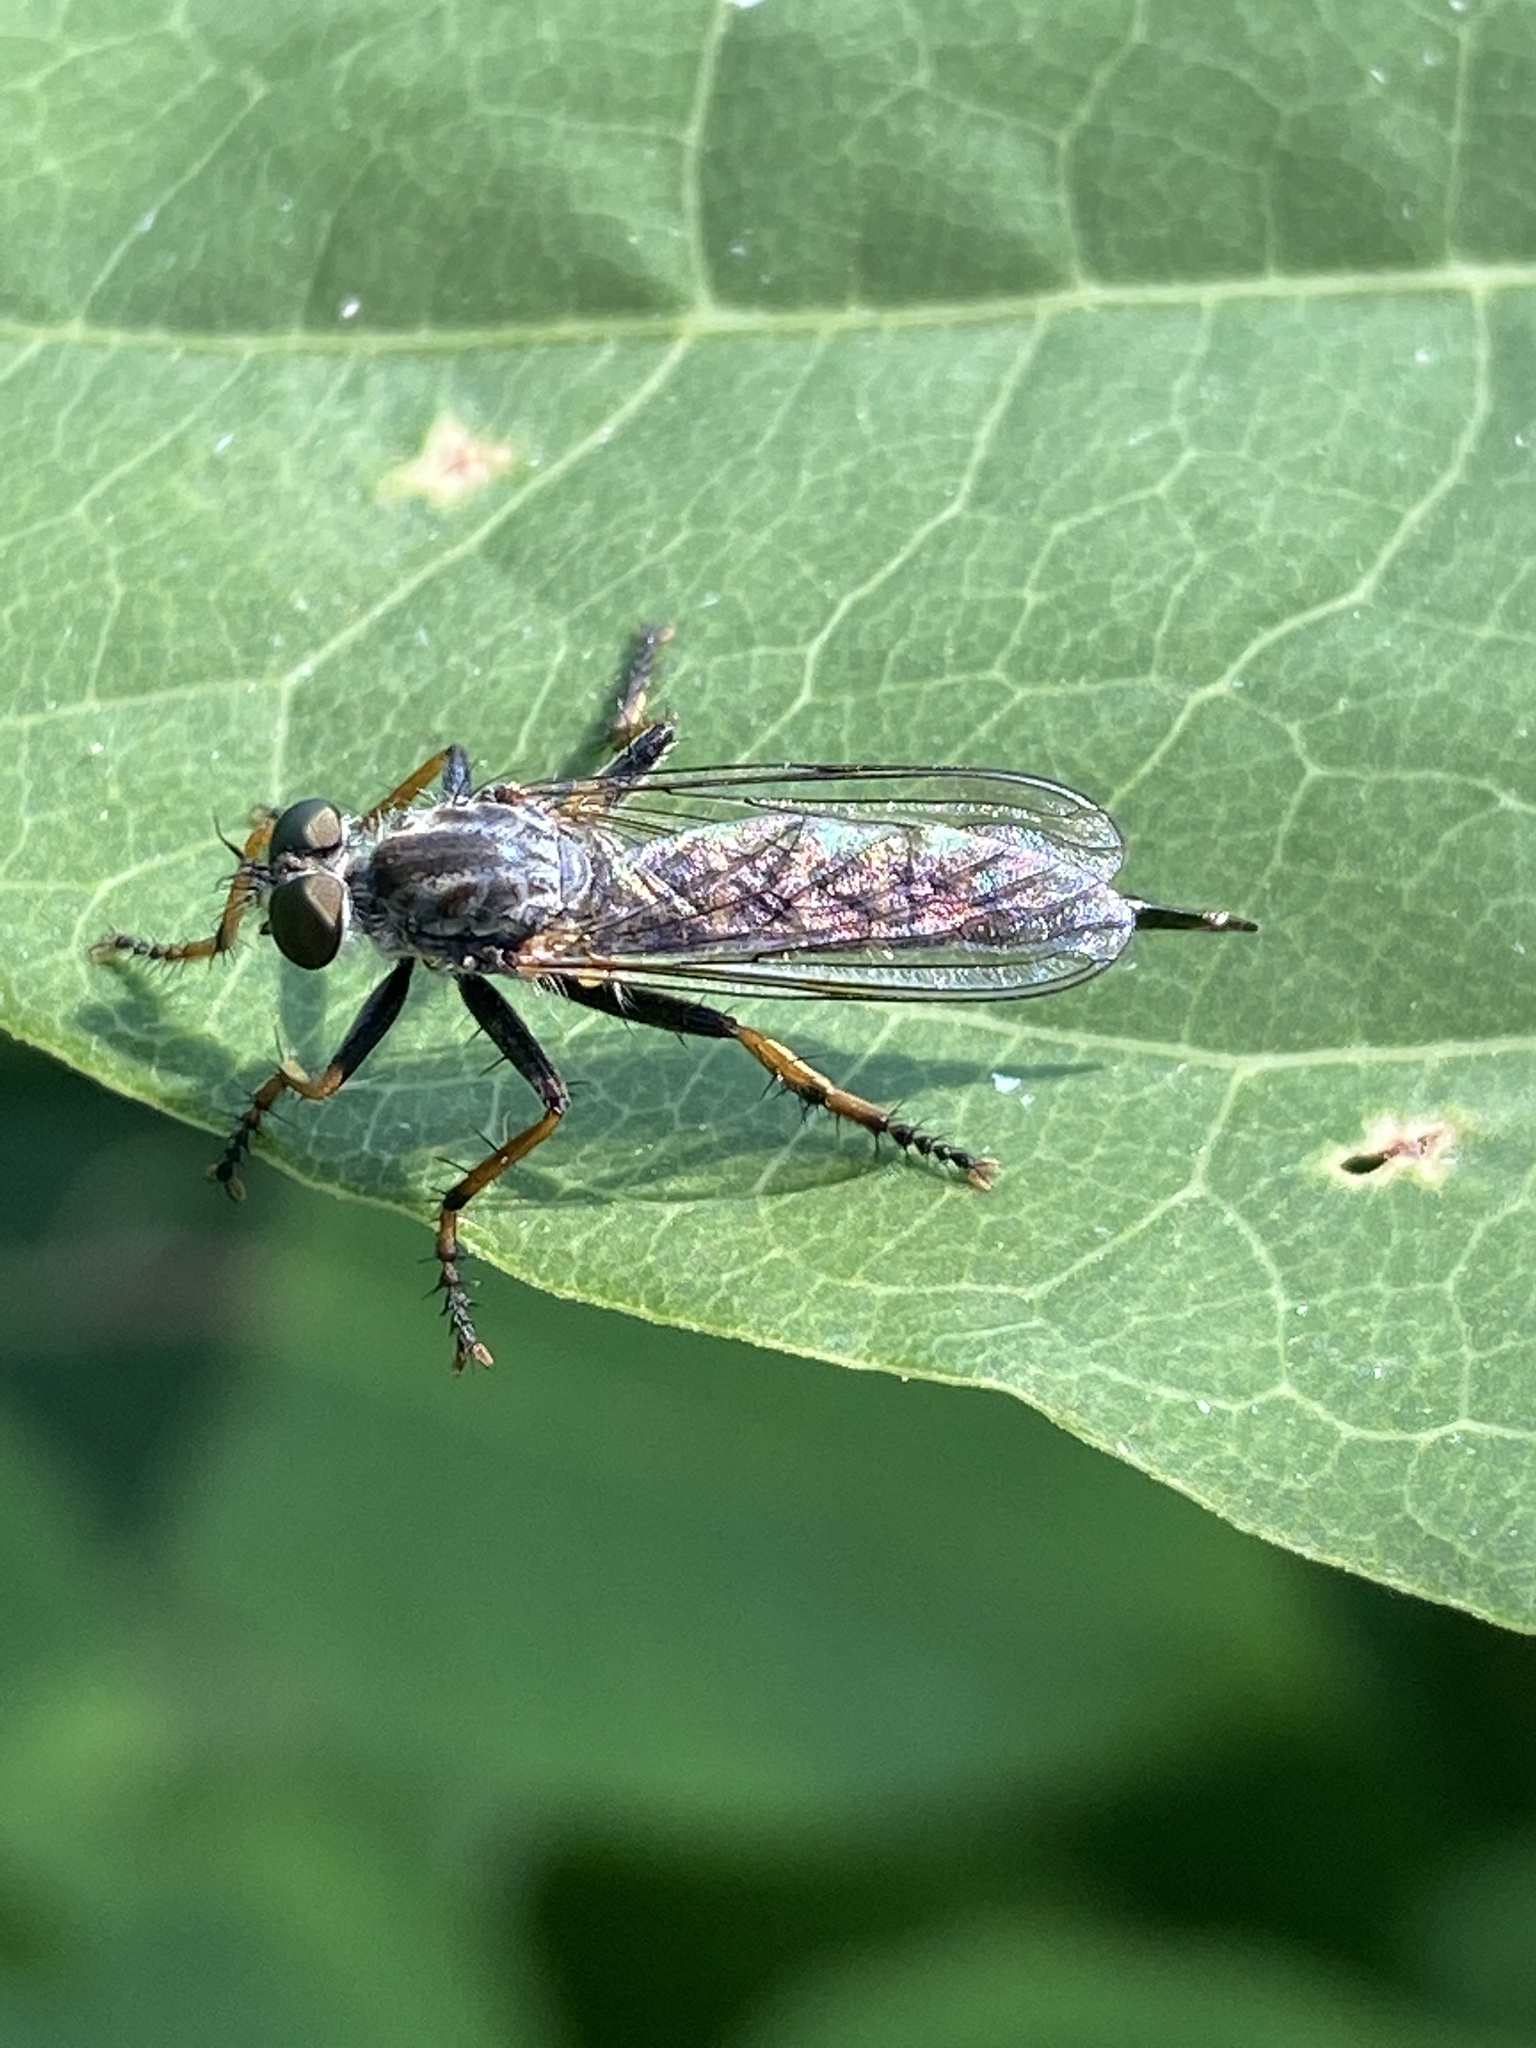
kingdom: Animalia
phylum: Arthropoda
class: Insecta
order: Diptera
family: Asilidae
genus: Paritamus
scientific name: Paritamus geniculatus
